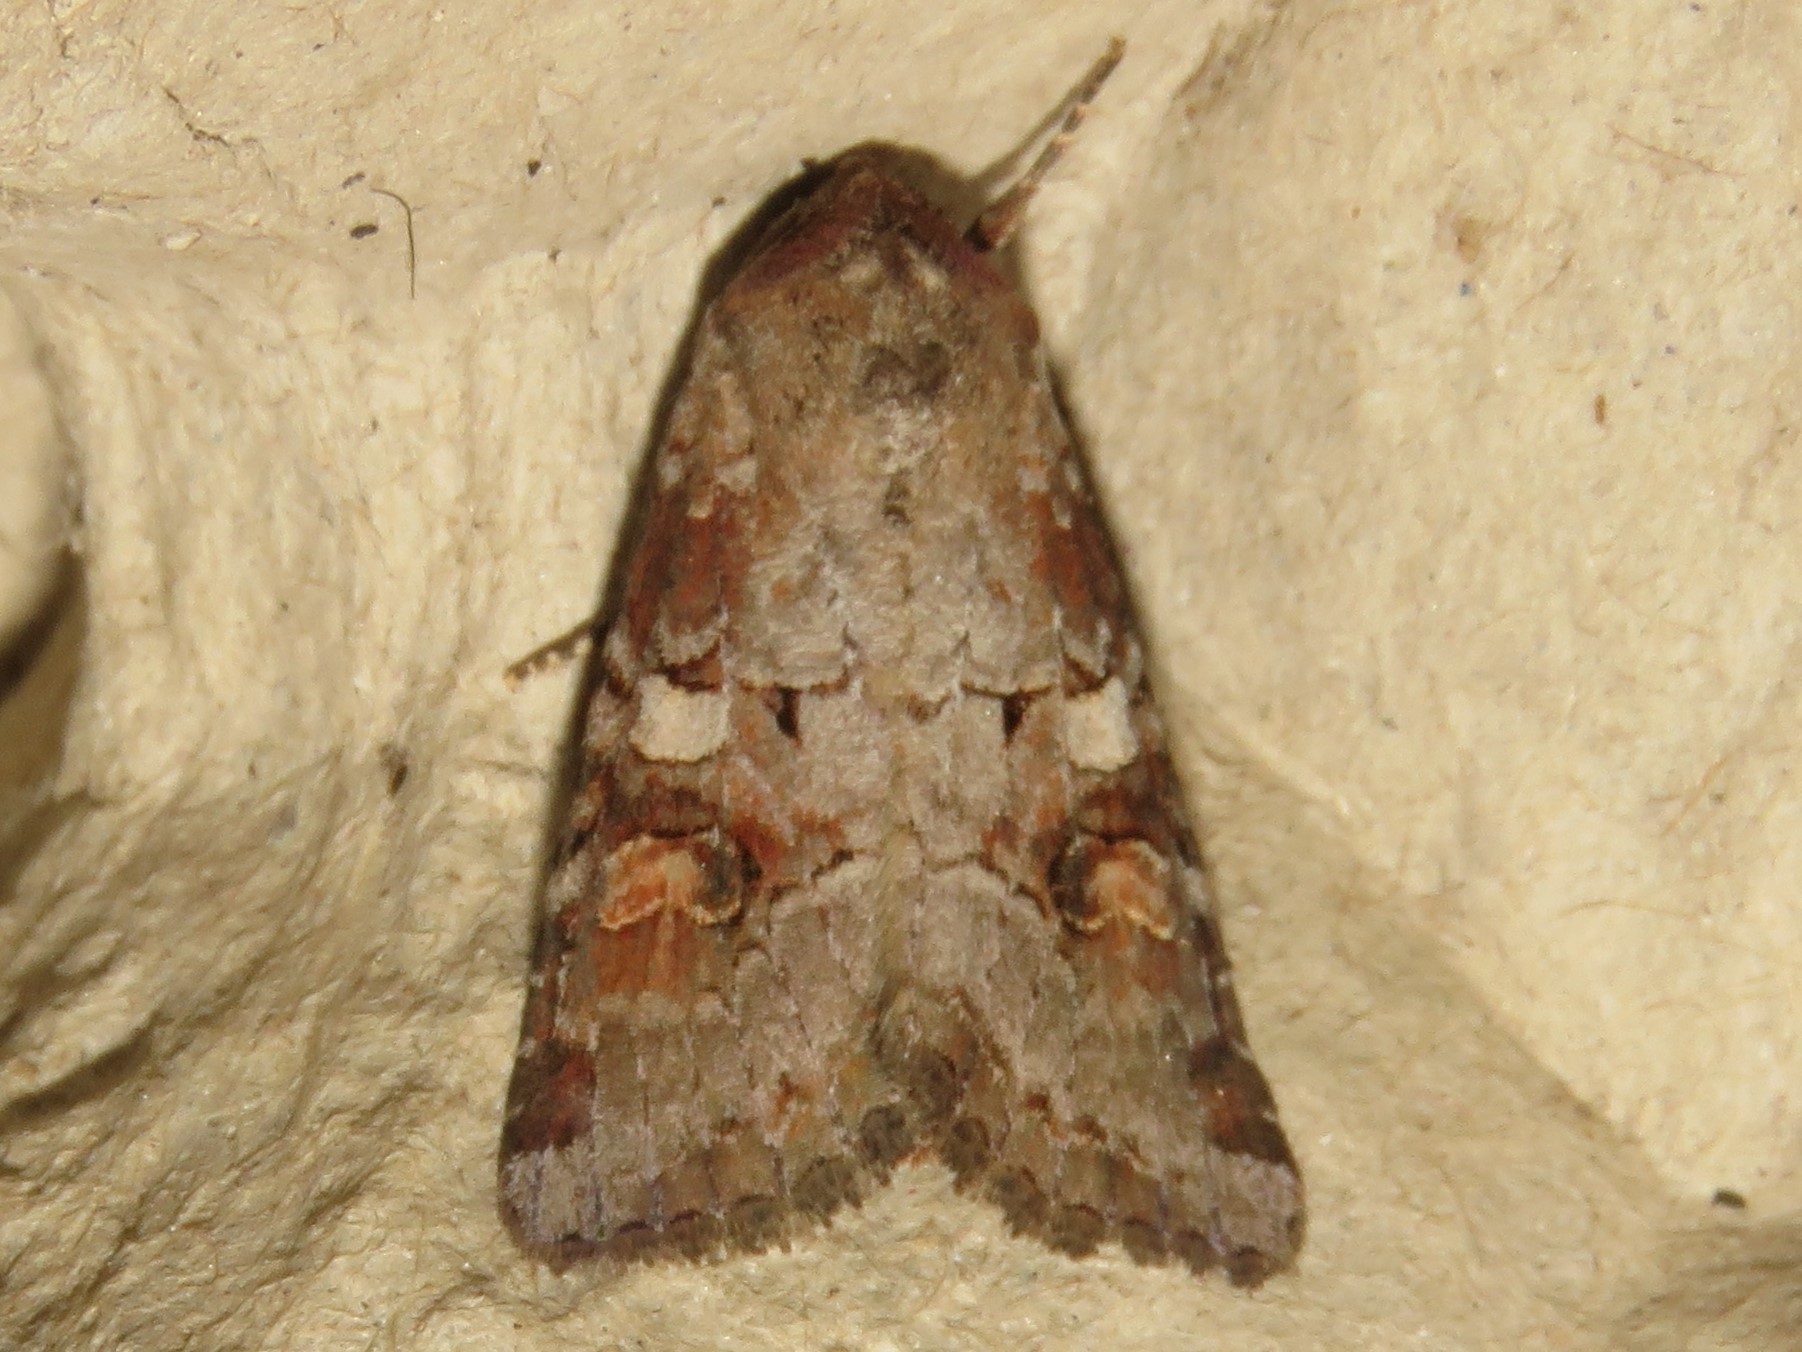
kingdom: Animalia
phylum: Arthropoda
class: Insecta
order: Lepidoptera
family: Noctuidae
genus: Trichordestra
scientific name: Trichordestra legitima
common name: Striped garden caterpillar
